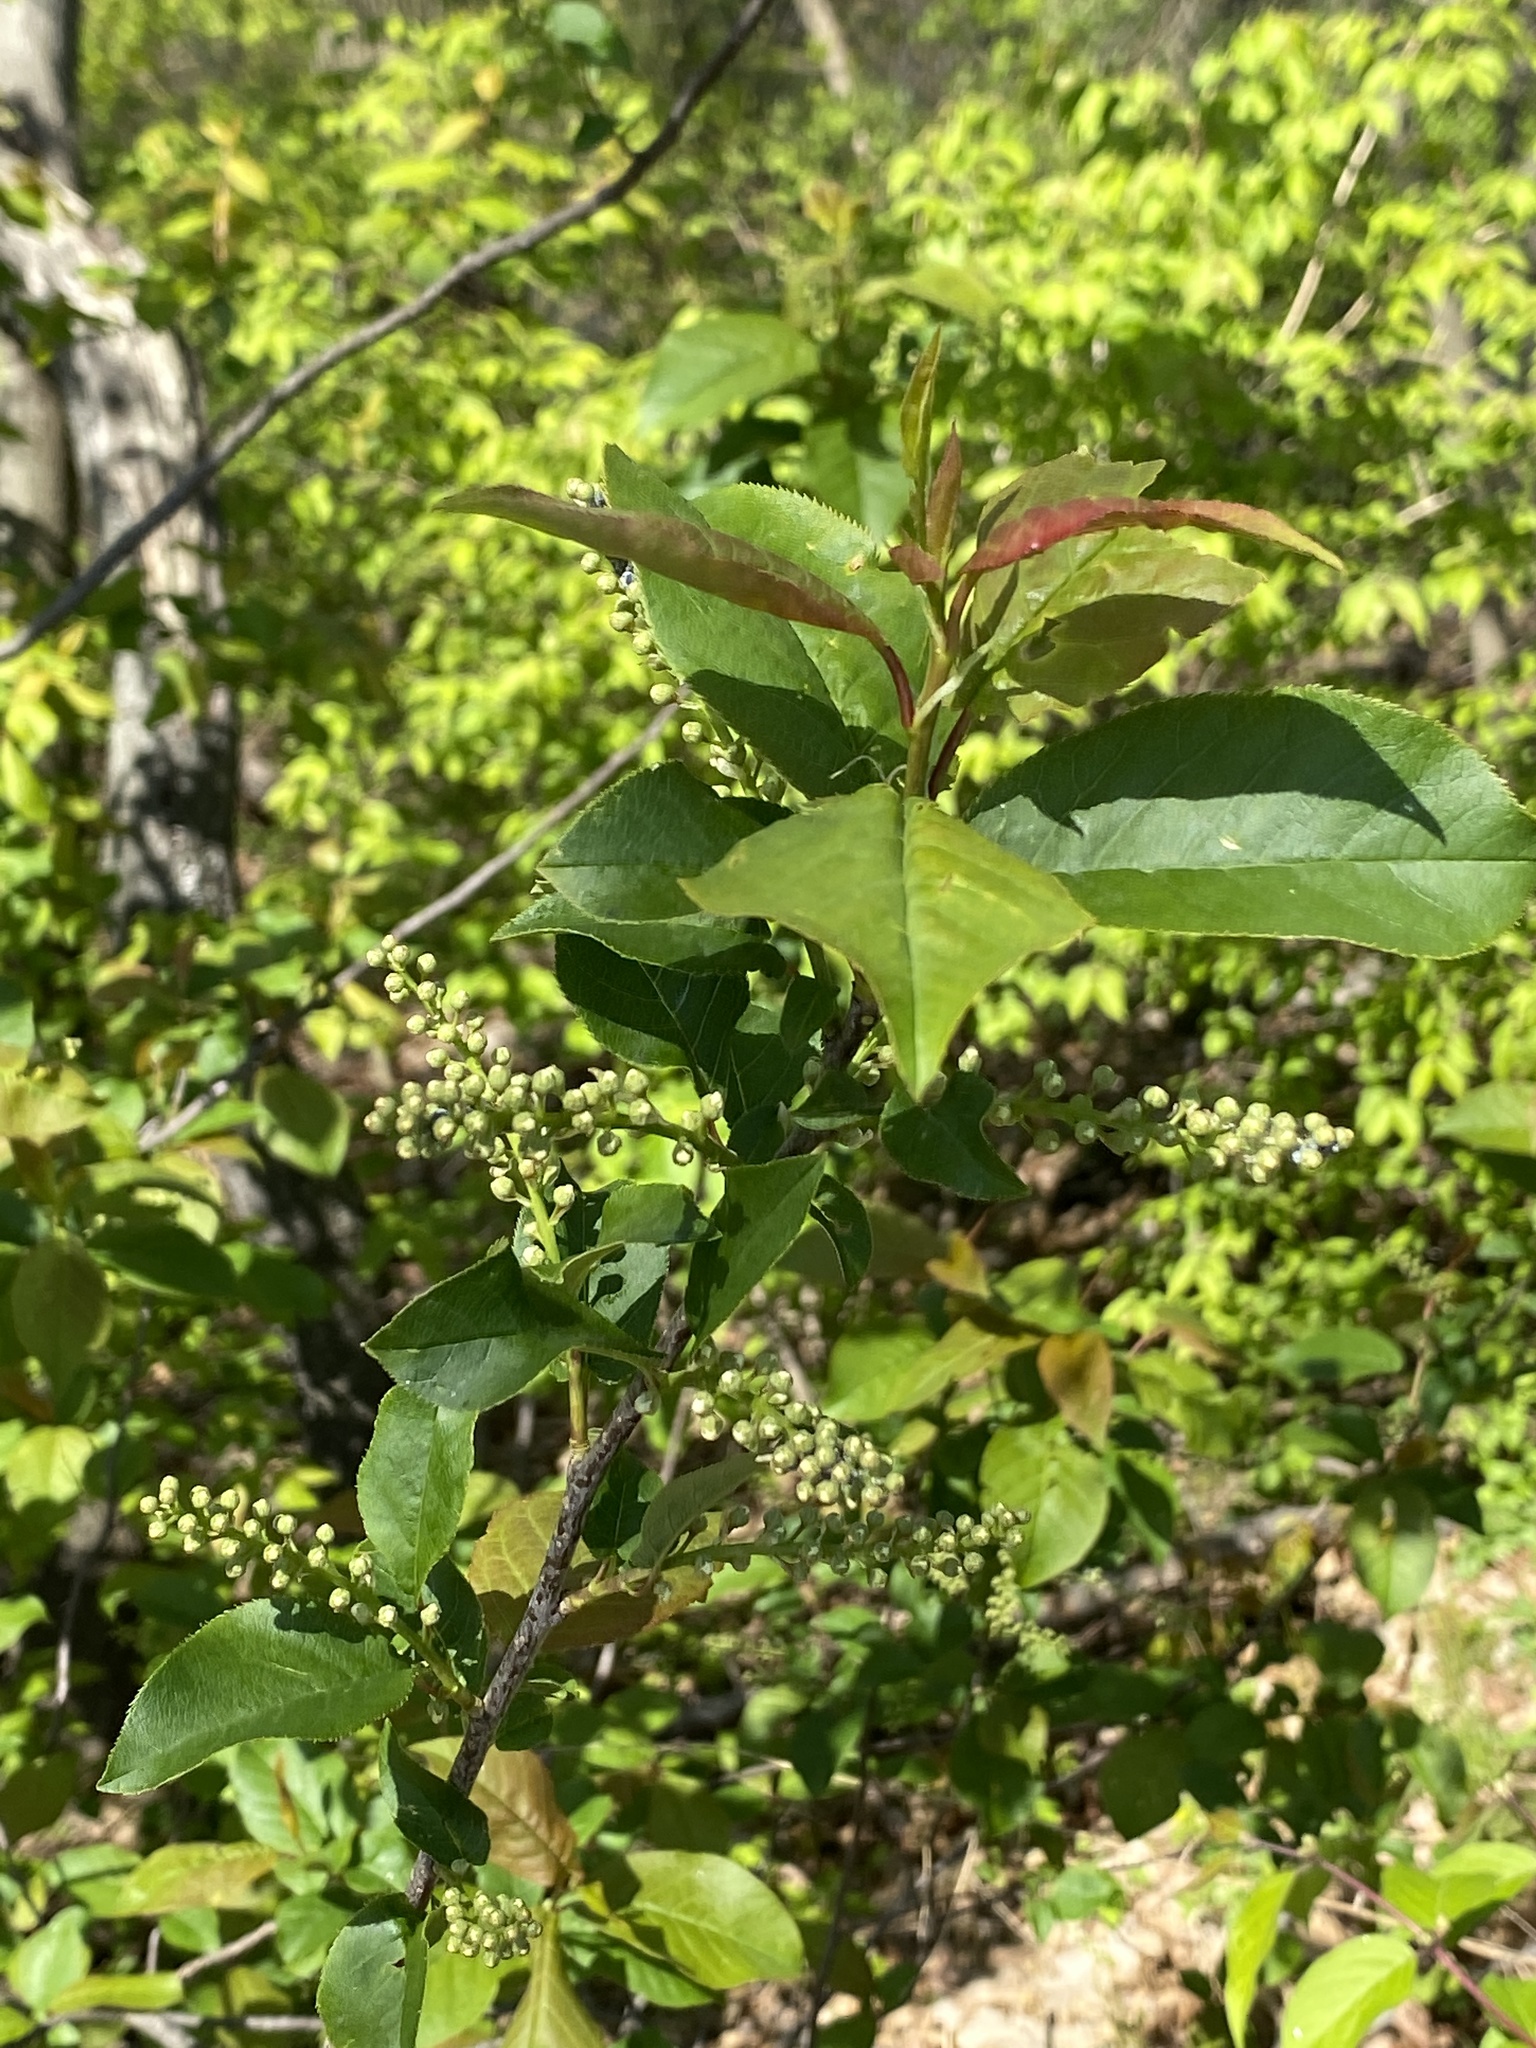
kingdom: Plantae
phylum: Tracheophyta
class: Magnoliopsida
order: Rosales
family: Rosaceae
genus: Prunus
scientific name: Prunus virginiana
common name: Chokecherry
